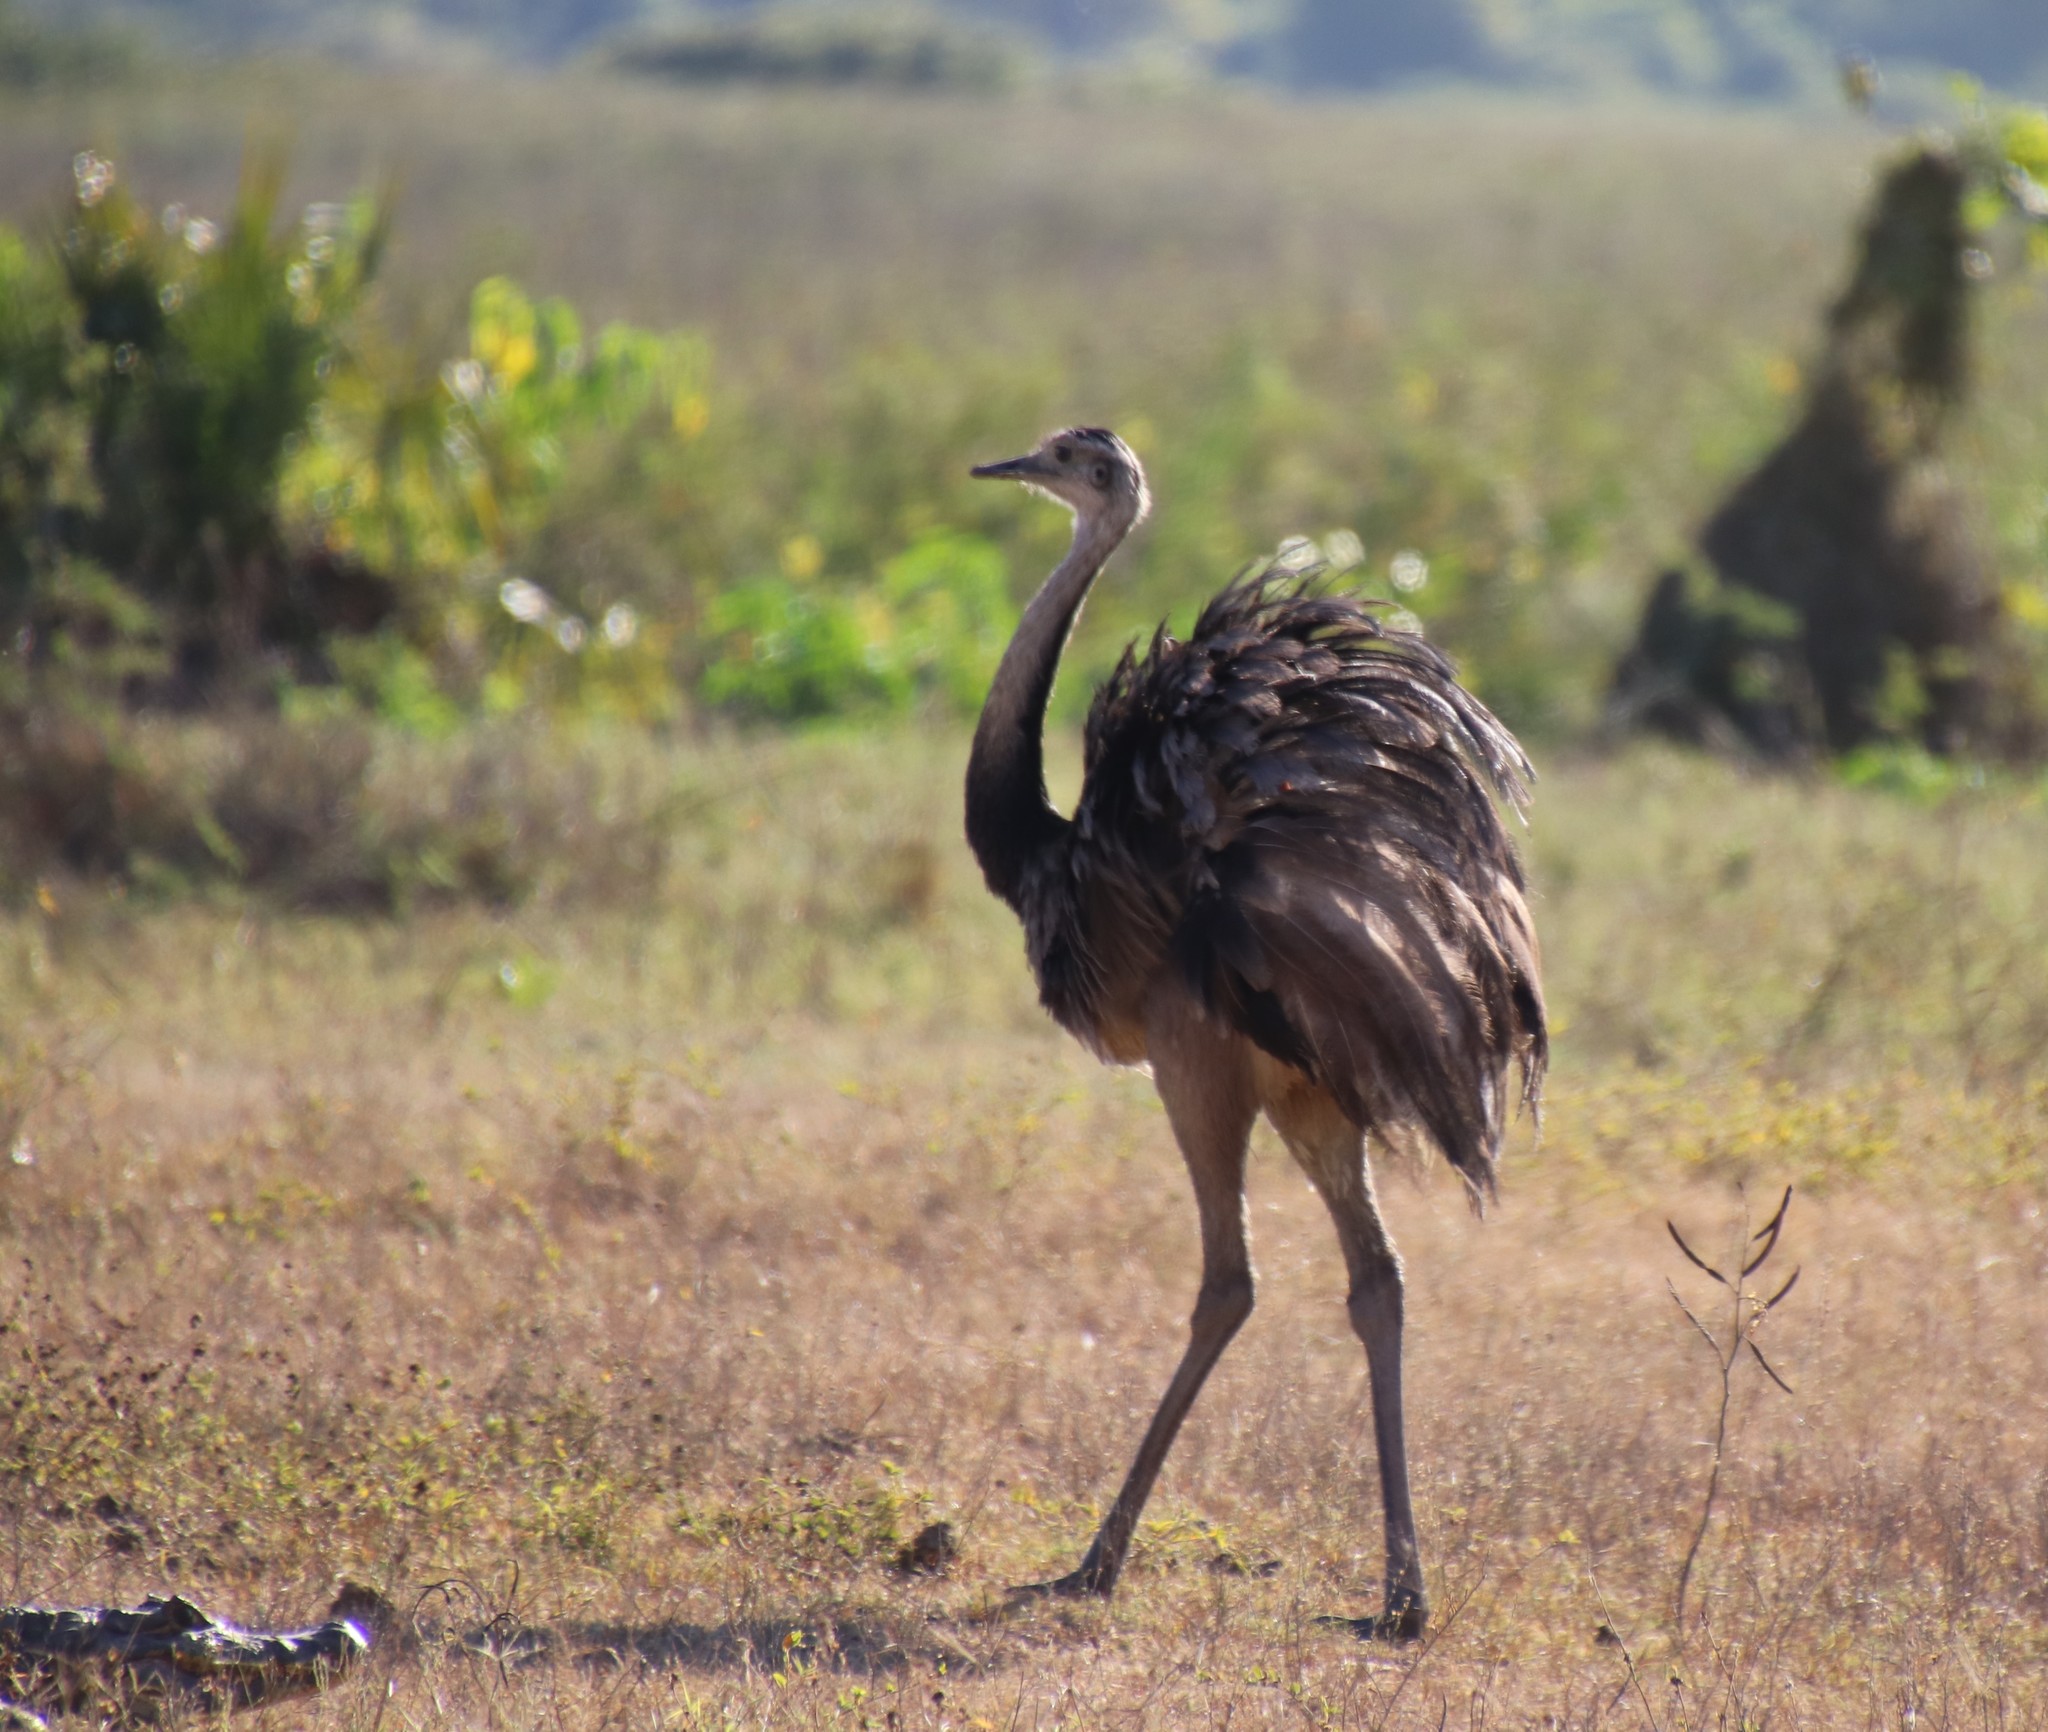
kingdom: Animalia
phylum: Chordata
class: Aves
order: Rheiformes
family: Rheidae
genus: Rhea
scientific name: Rhea americana
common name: Greater rhea
